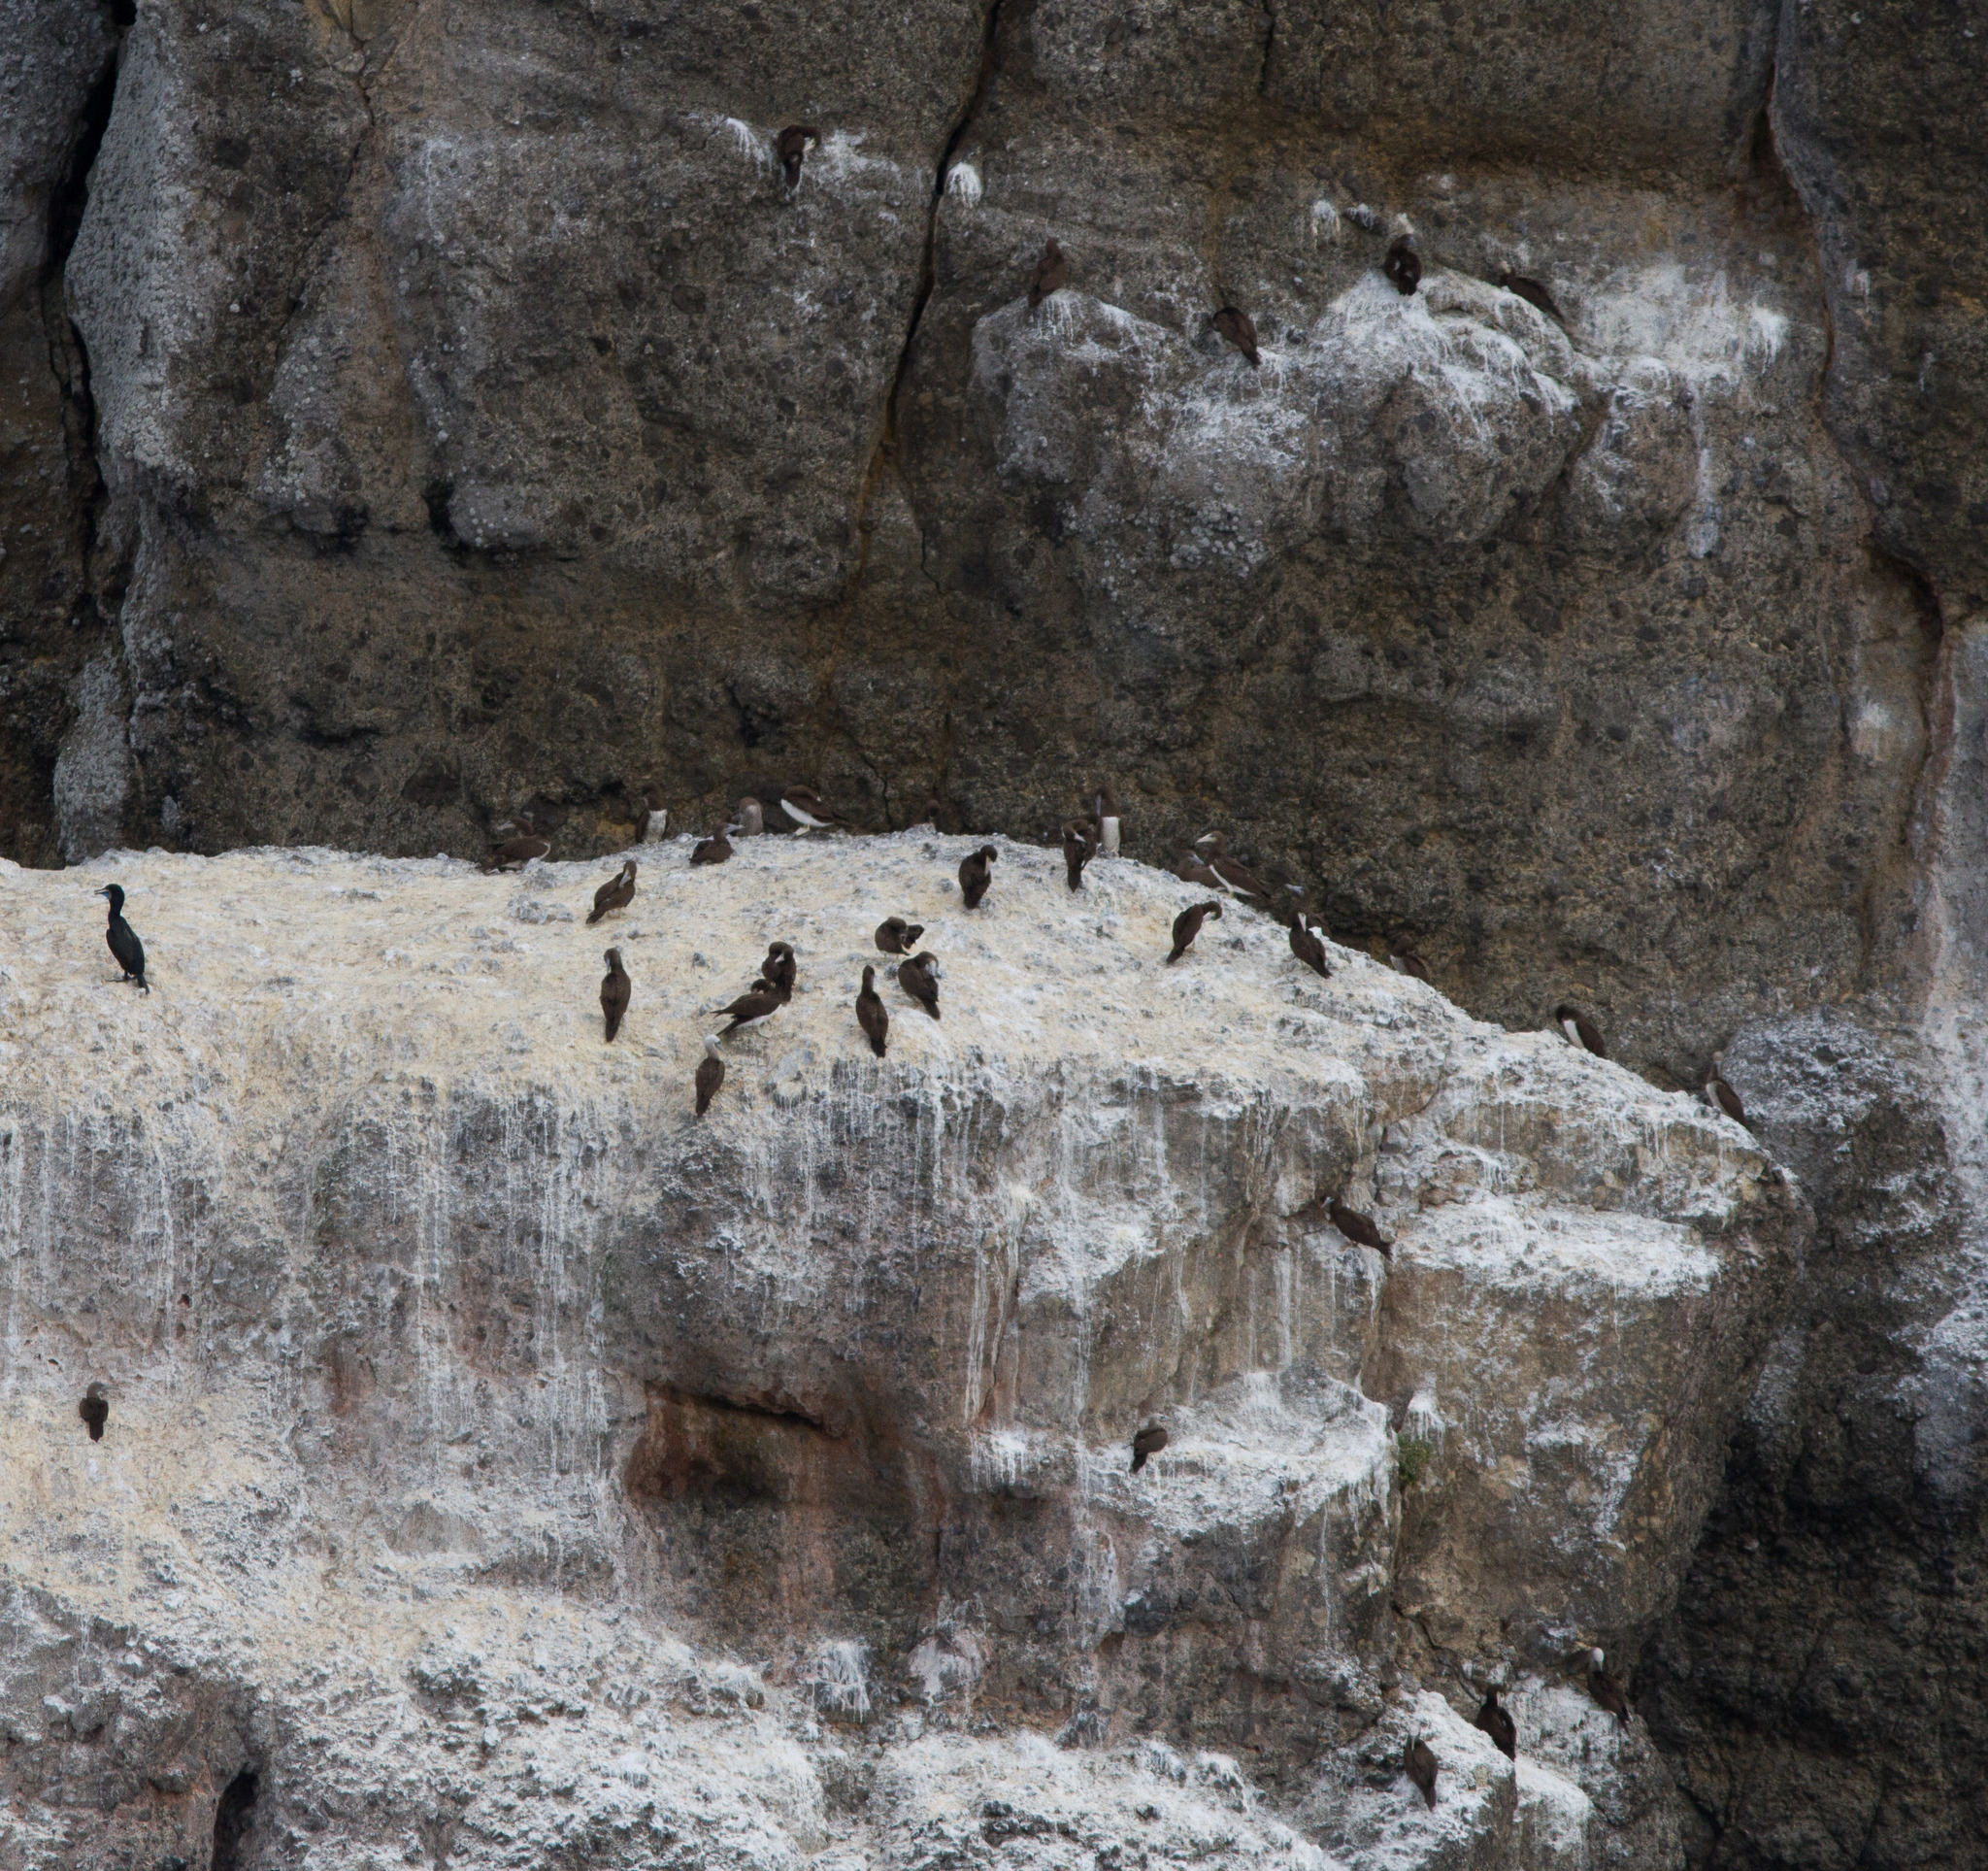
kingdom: Animalia
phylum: Chordata
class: Aves
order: Suliformes
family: Sulidae
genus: Sula
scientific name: Sula leucogaster
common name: Brown booby
